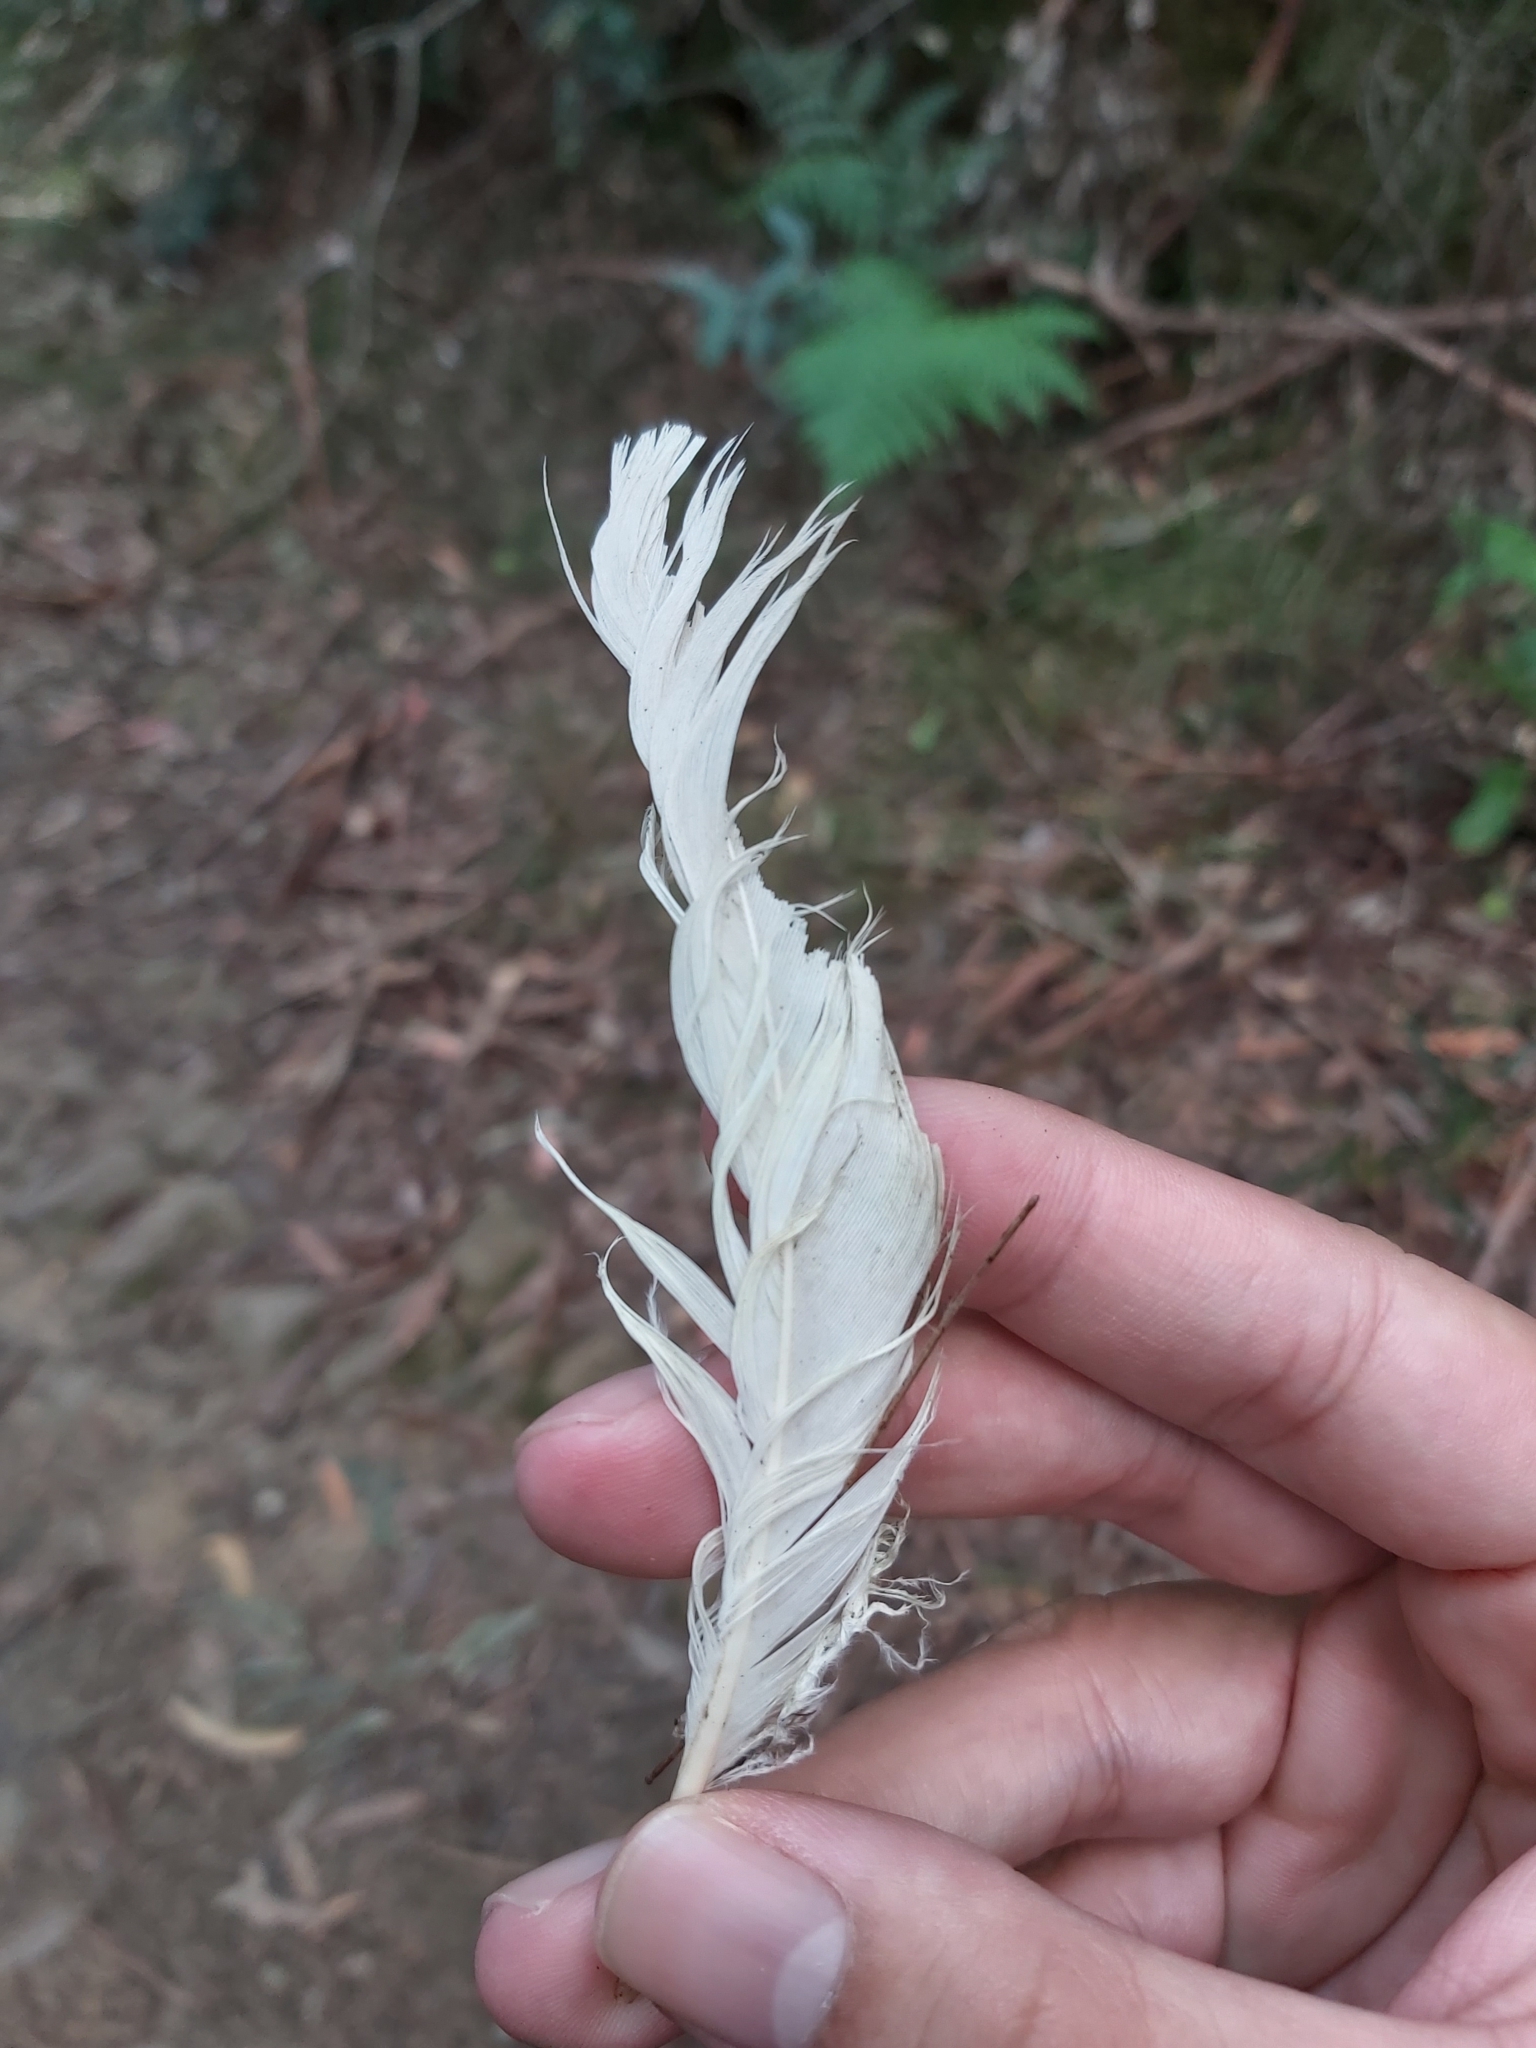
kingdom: Animalia
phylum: Chordata
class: Aves
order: Psittaciformes
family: Psittacidae
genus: Cacatua
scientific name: Cacatua galerita
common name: Sulphur-crested cockatoo
